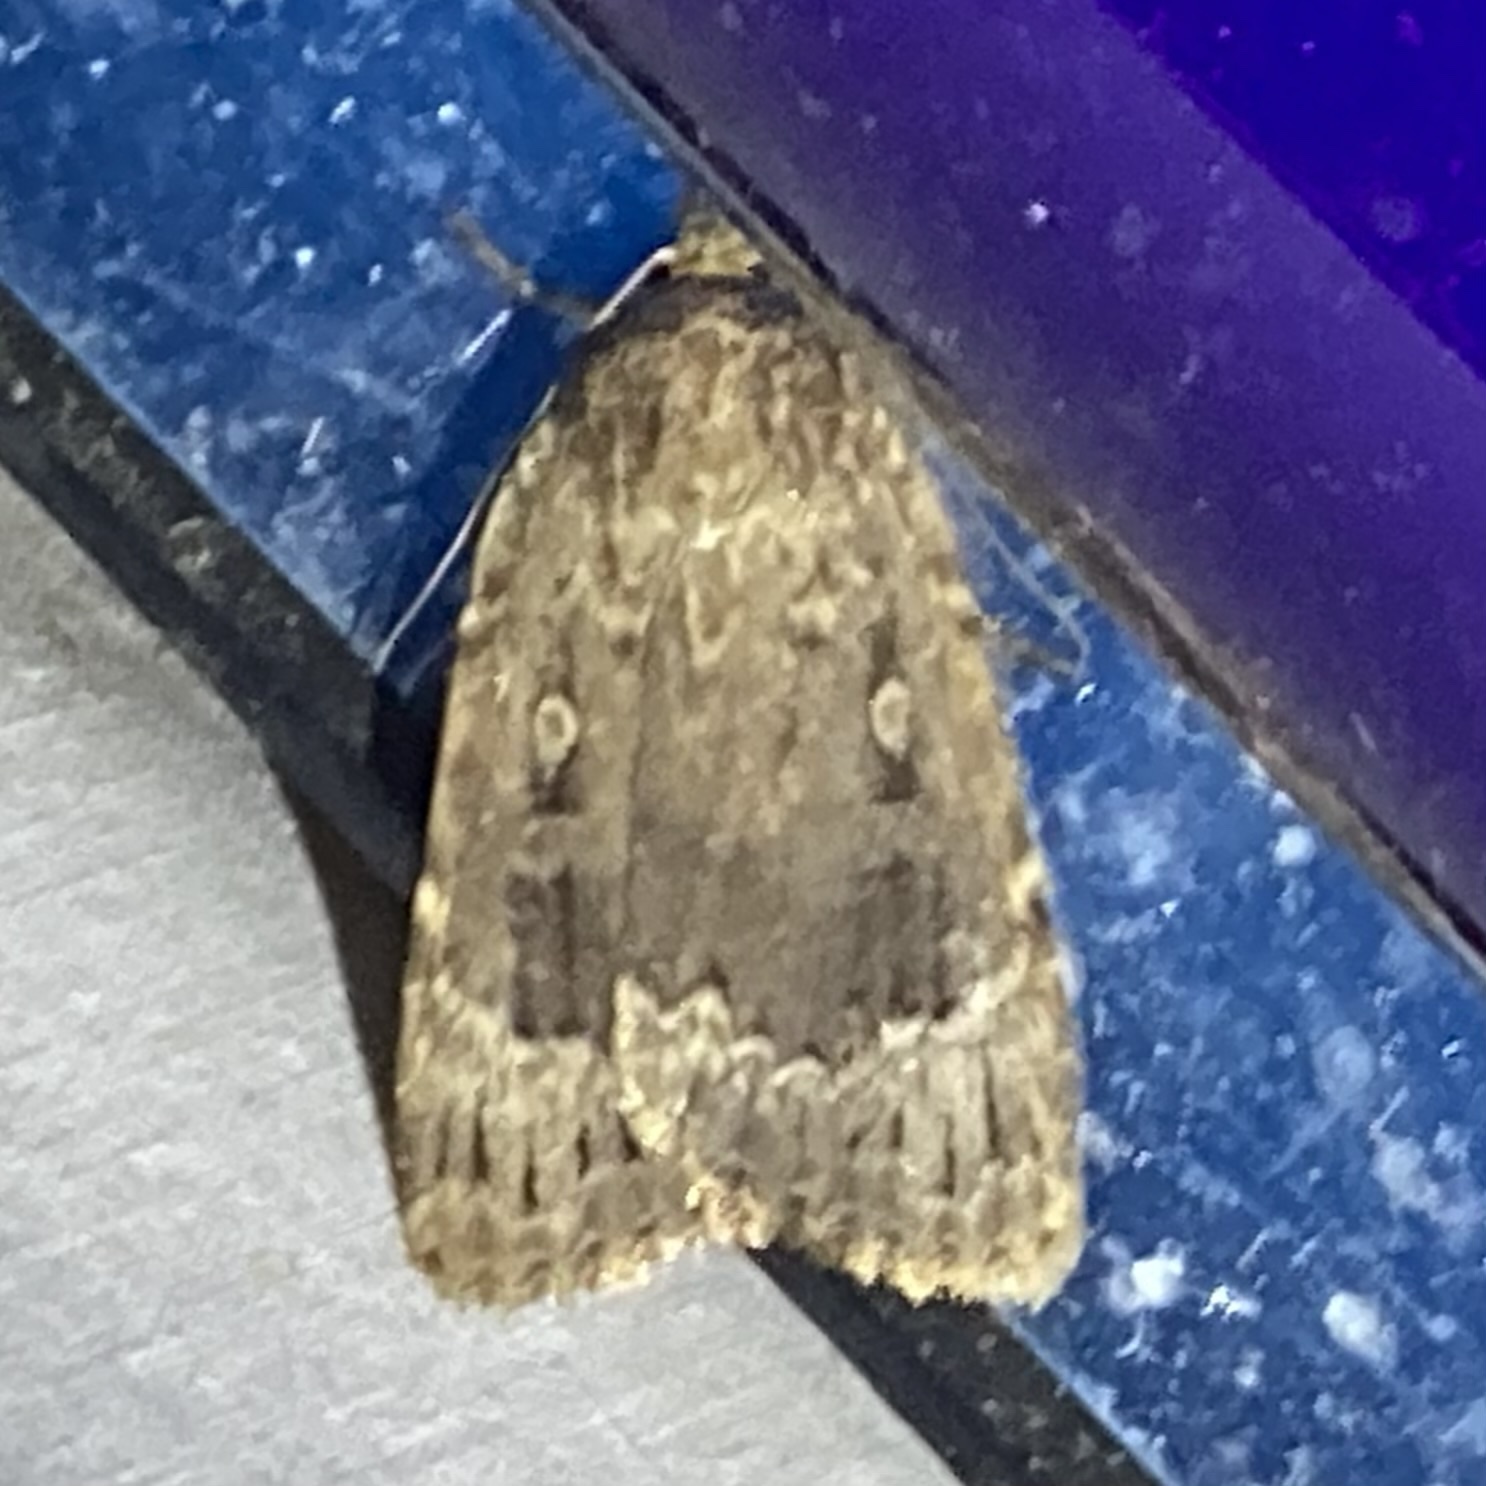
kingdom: Animalia
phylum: Arthropoda
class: Insecta
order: Lepidoptera
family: Noctuidae
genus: Amphipyra
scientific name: Amphipyra pyramidoides
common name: American copper underwing
